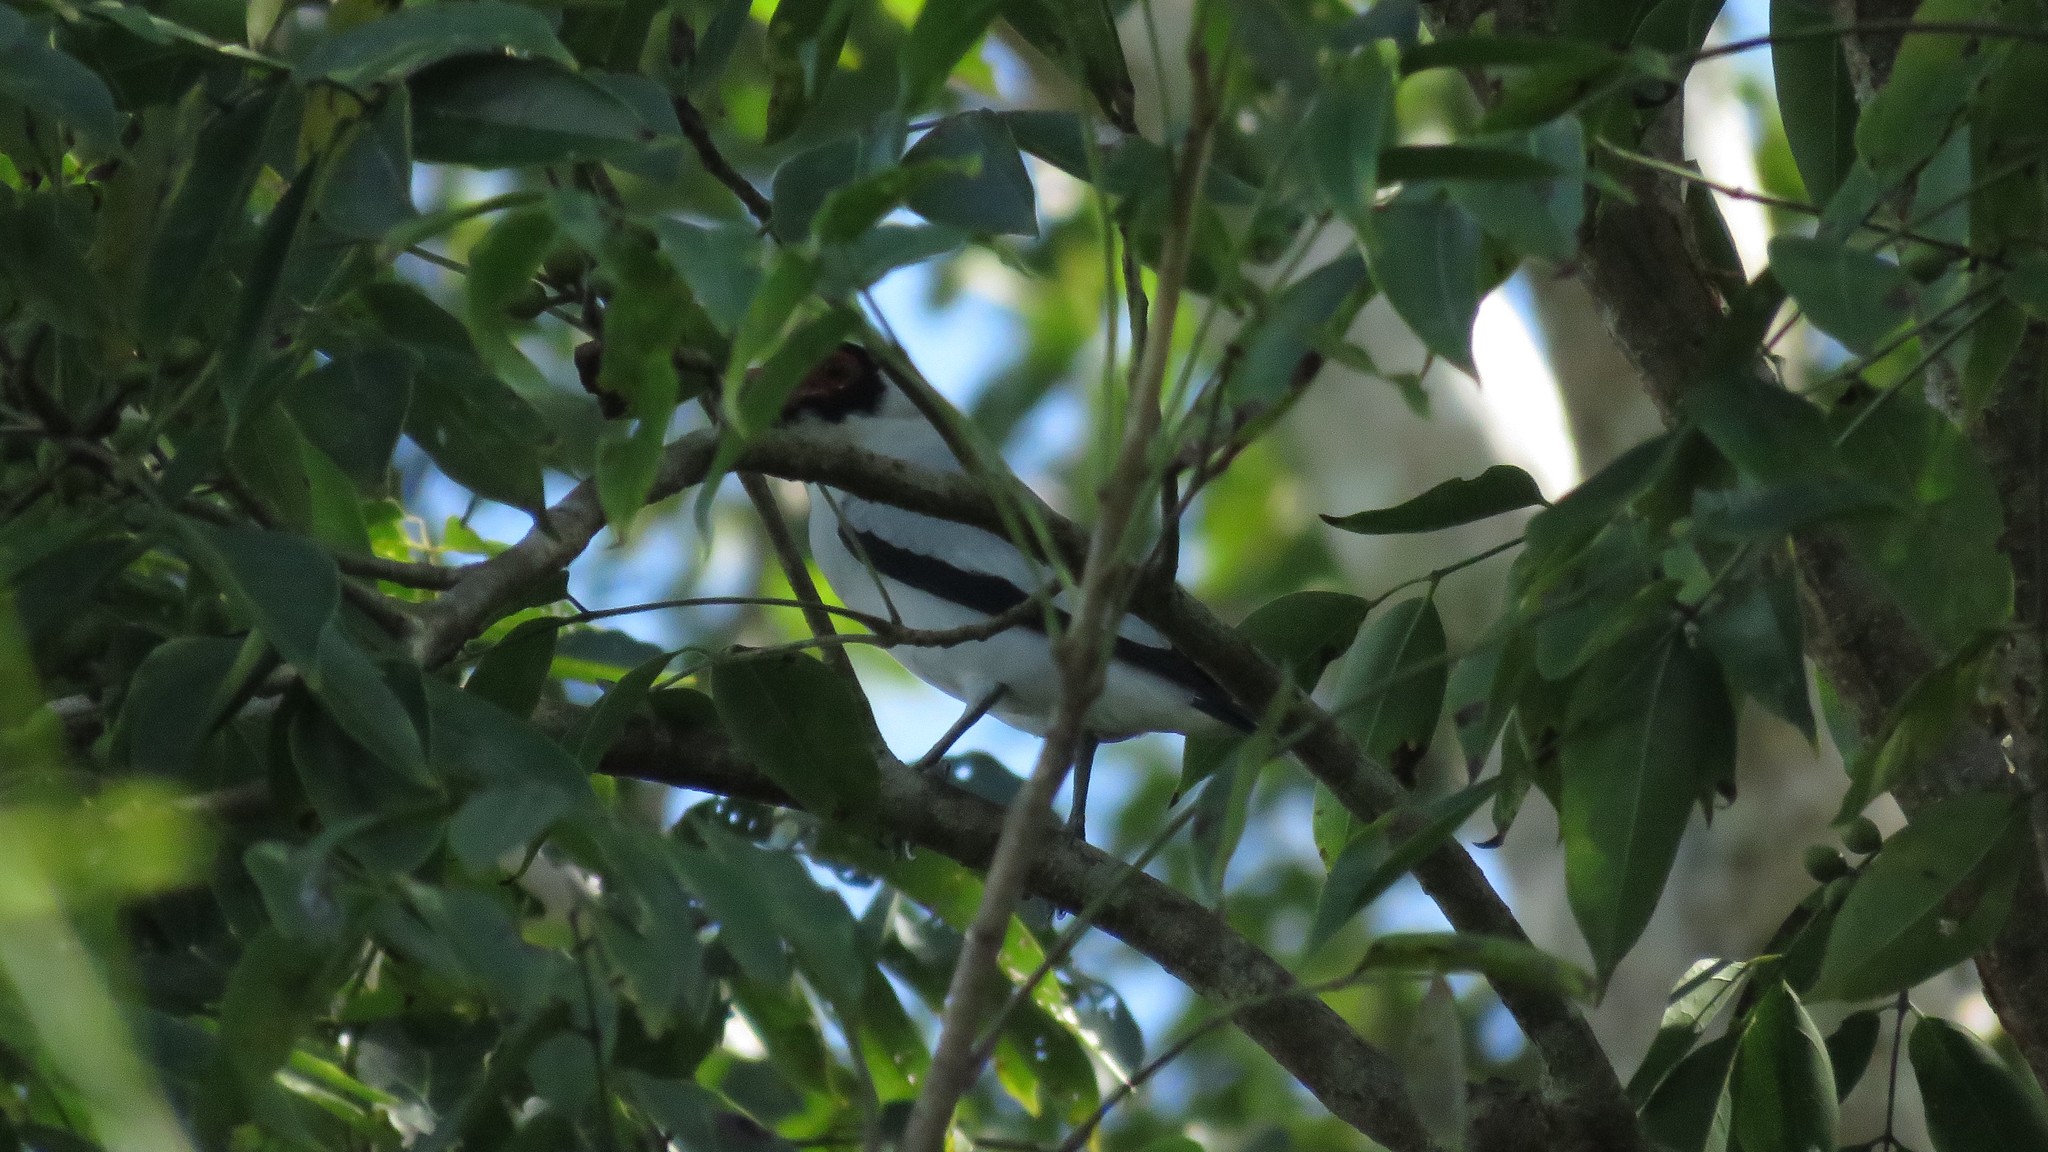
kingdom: Animalia
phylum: Chordata
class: Aves
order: Passeriformes
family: Cotingidae
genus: Tityra
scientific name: Tityra semifasciata
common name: Masked tityra
